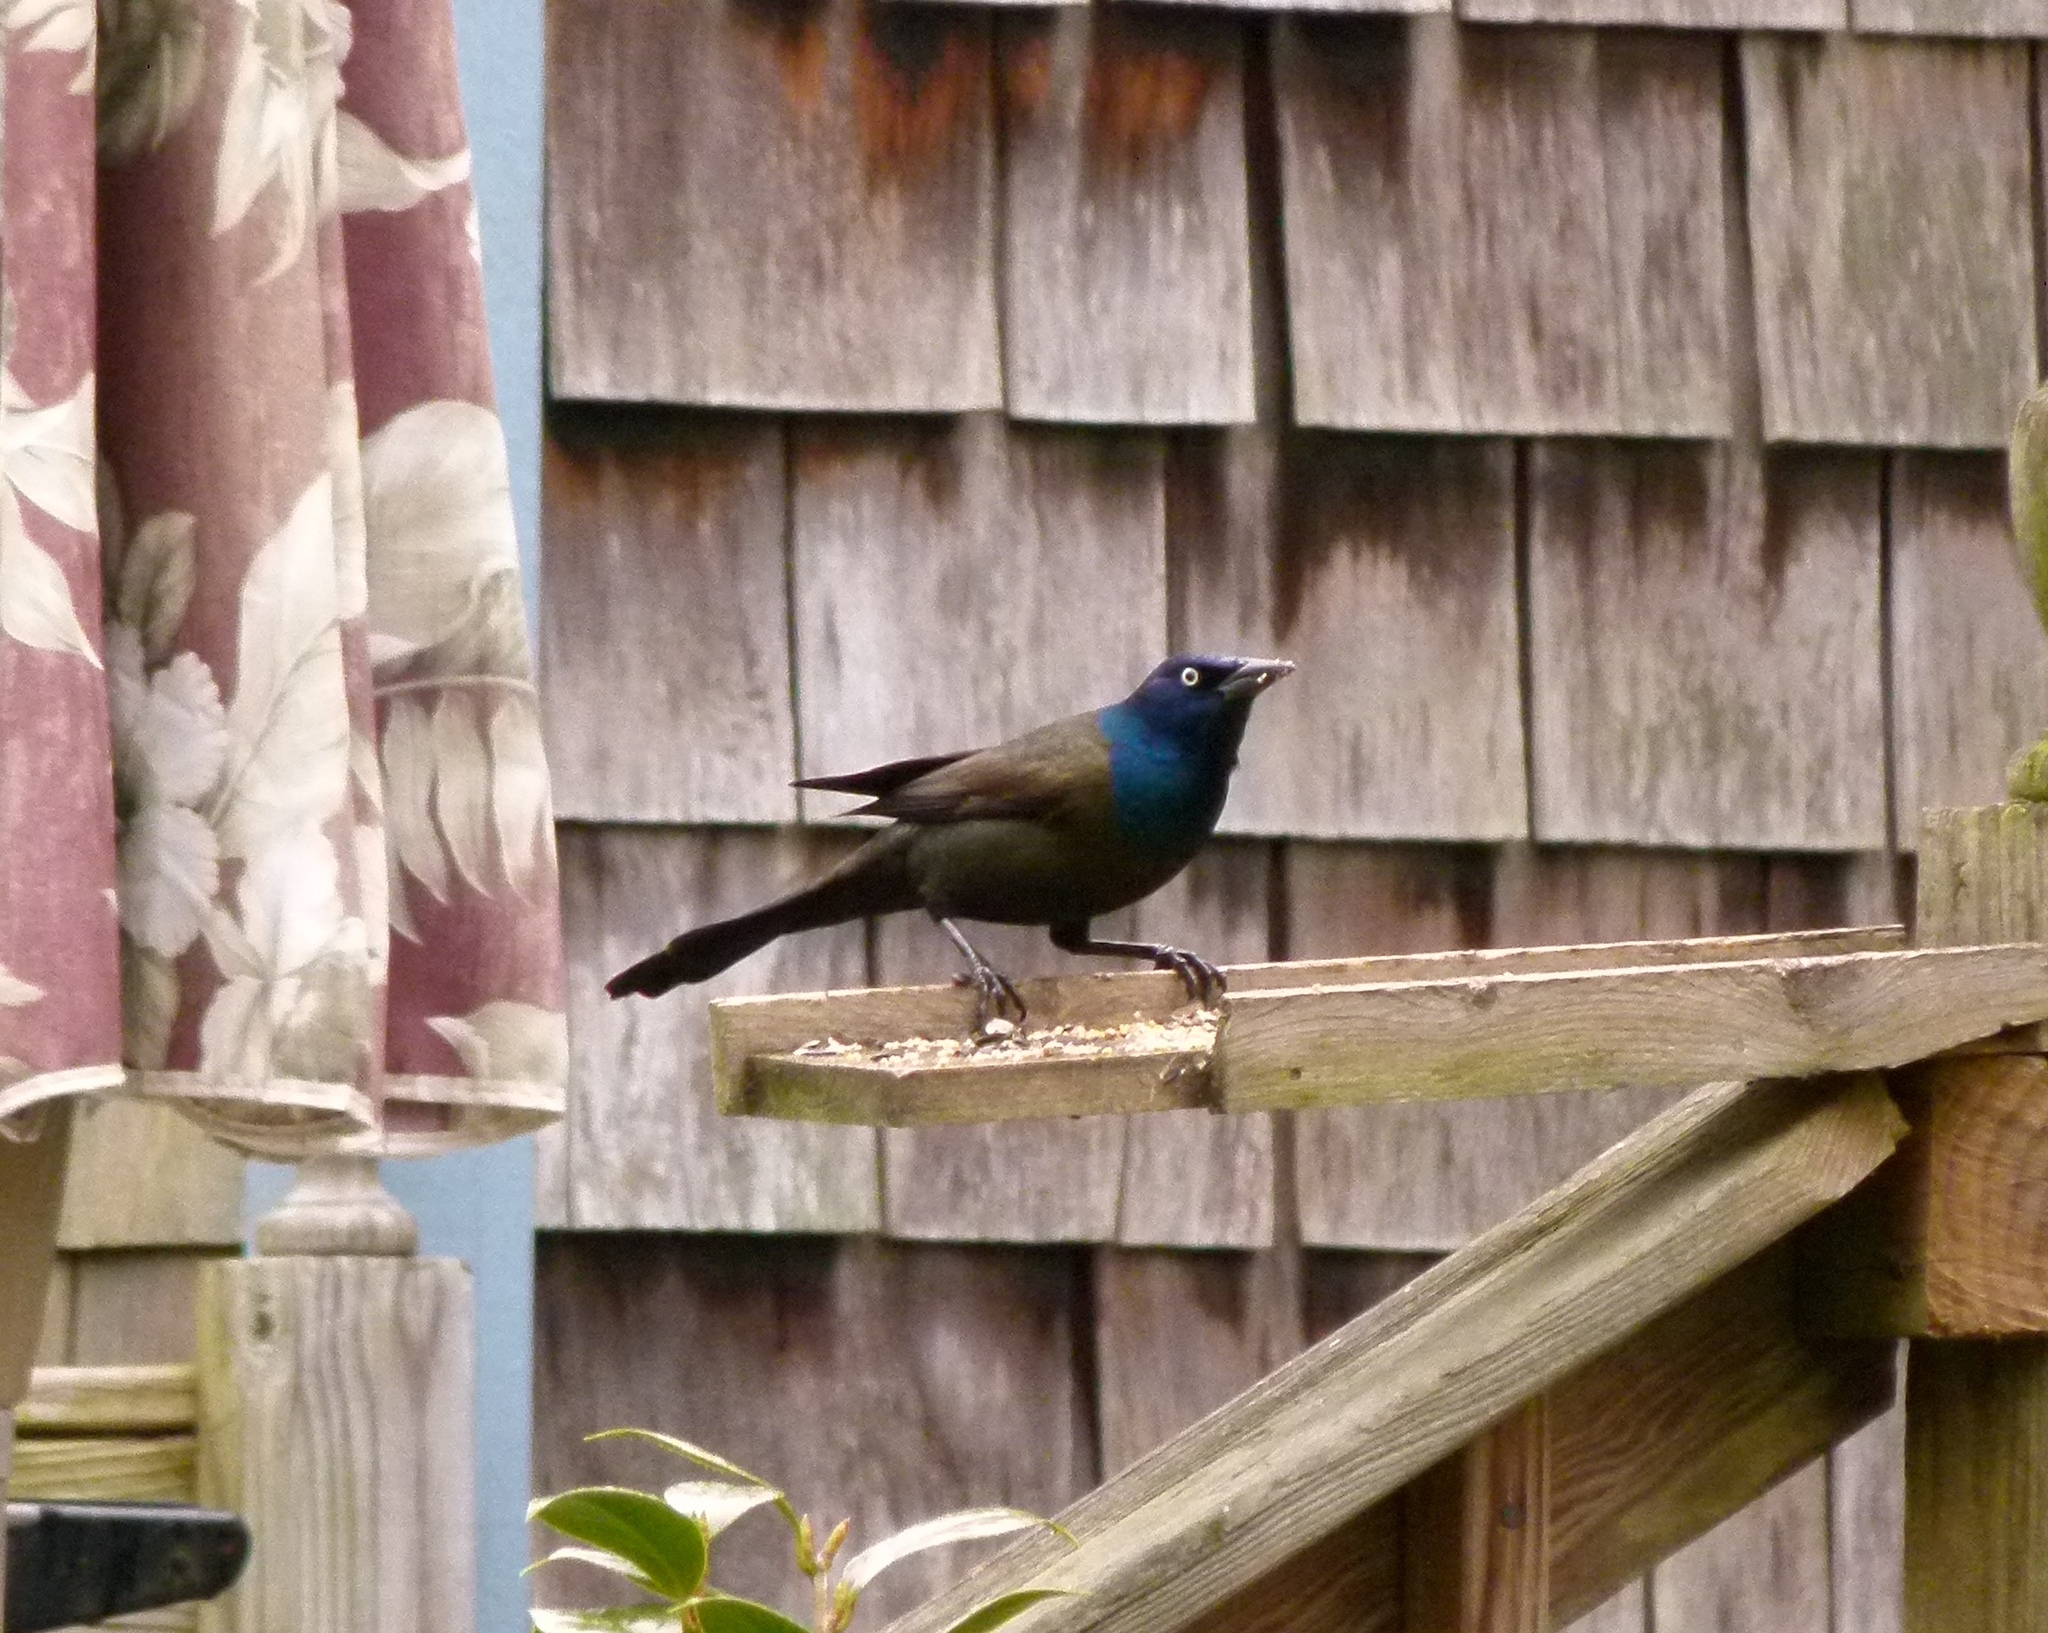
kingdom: Animalia
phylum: Chordata
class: Aves
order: Passeriformes
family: Icteridae
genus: Quiscalus
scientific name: Quiscalus quiscula
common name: Common grackle
